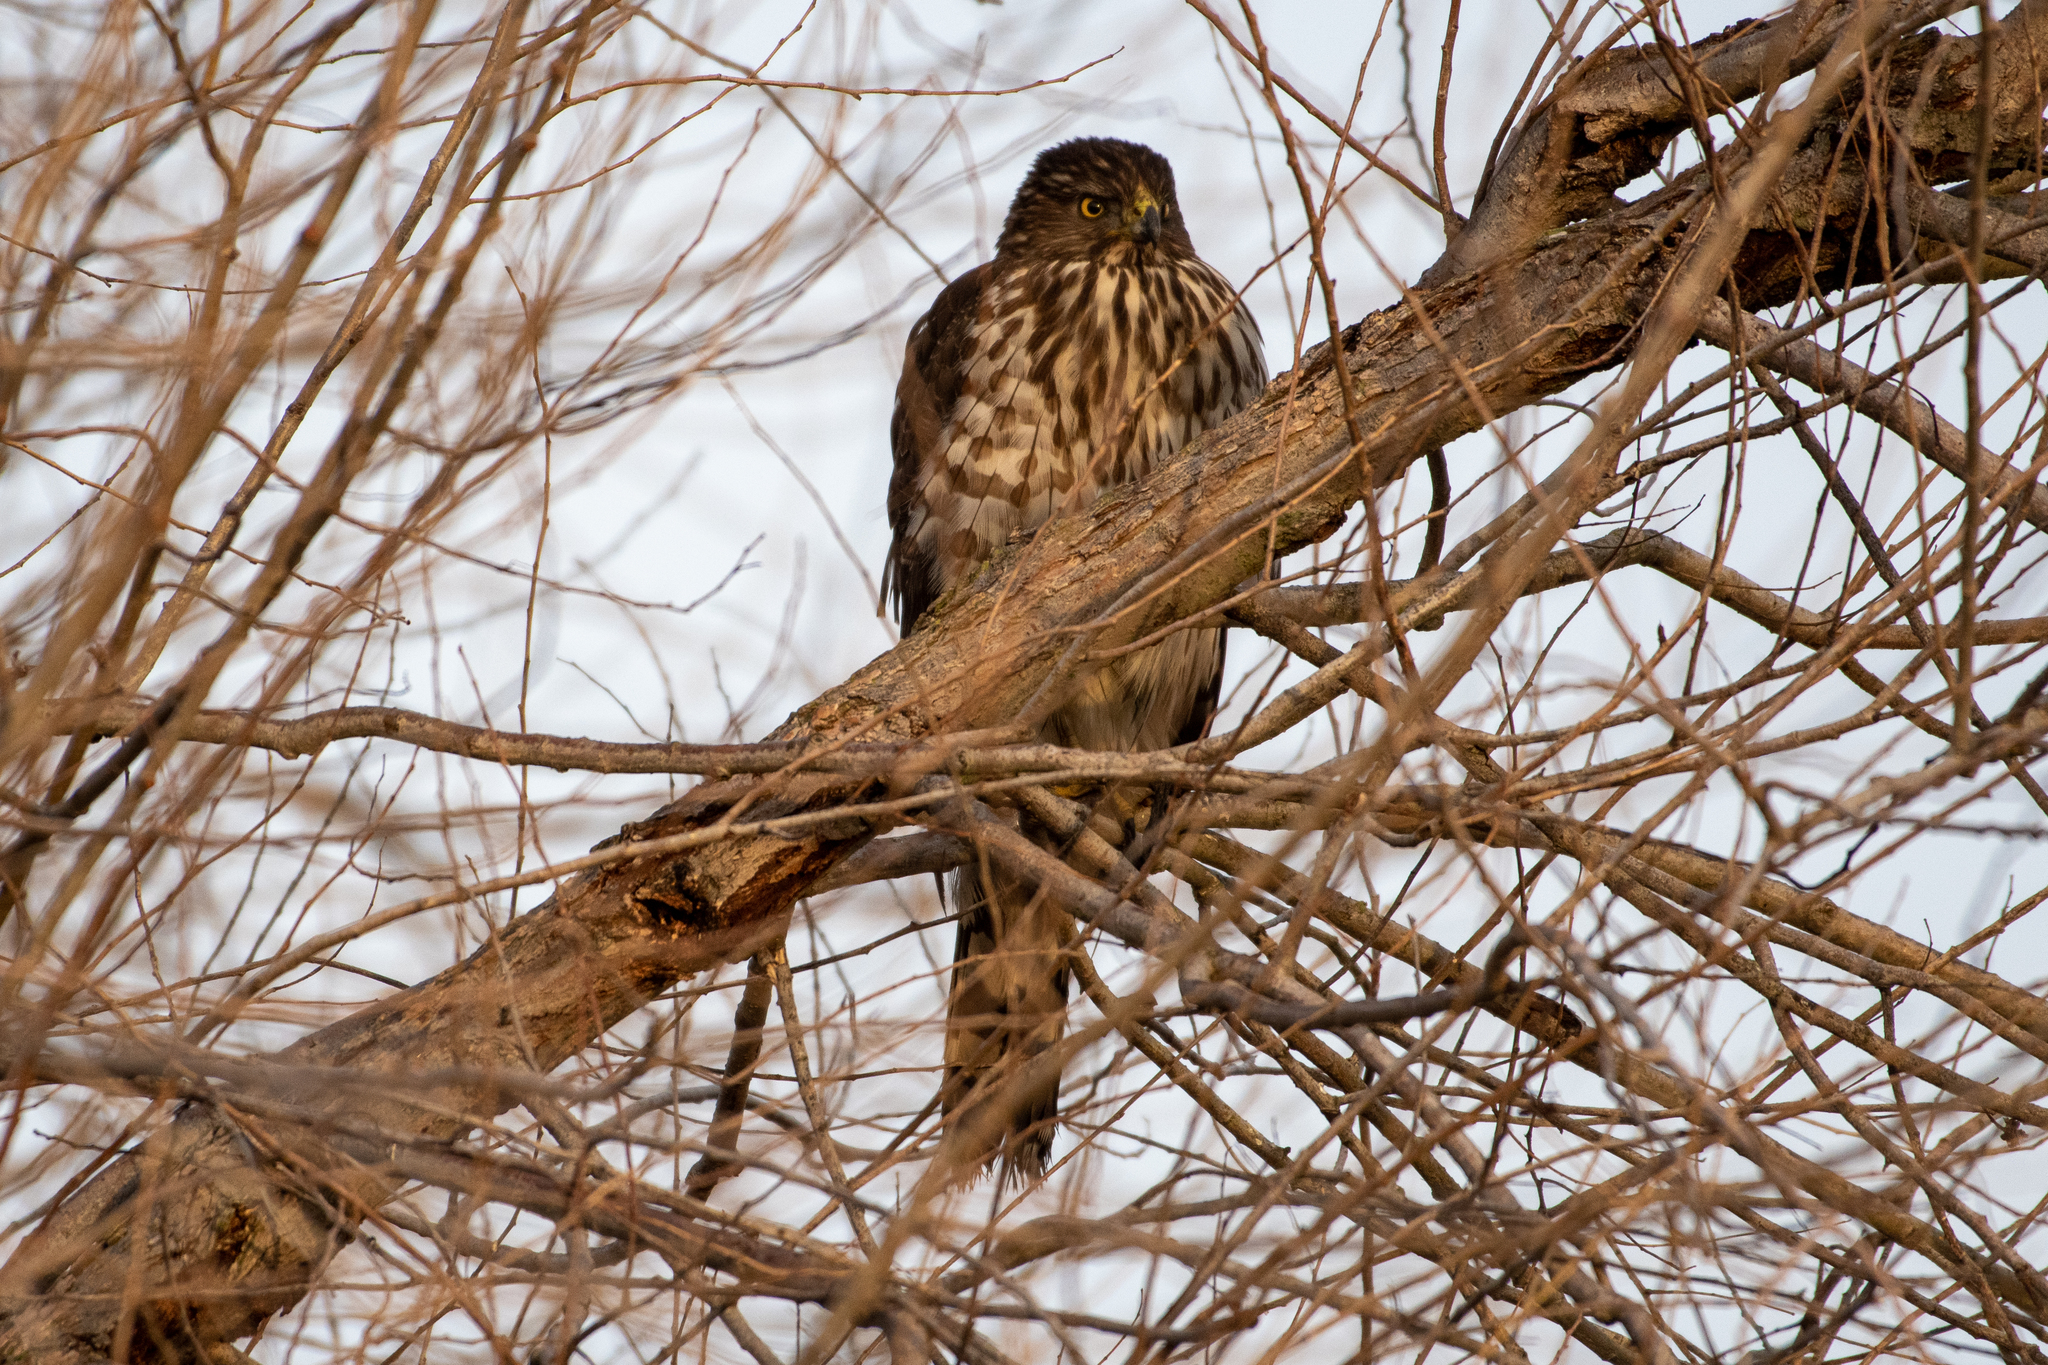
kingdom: Animalia
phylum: Chordata
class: Aves
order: Accipitriformes
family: Accipitridae
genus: Accipiter
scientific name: Accipiter cooperii
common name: Cooper's hawk
